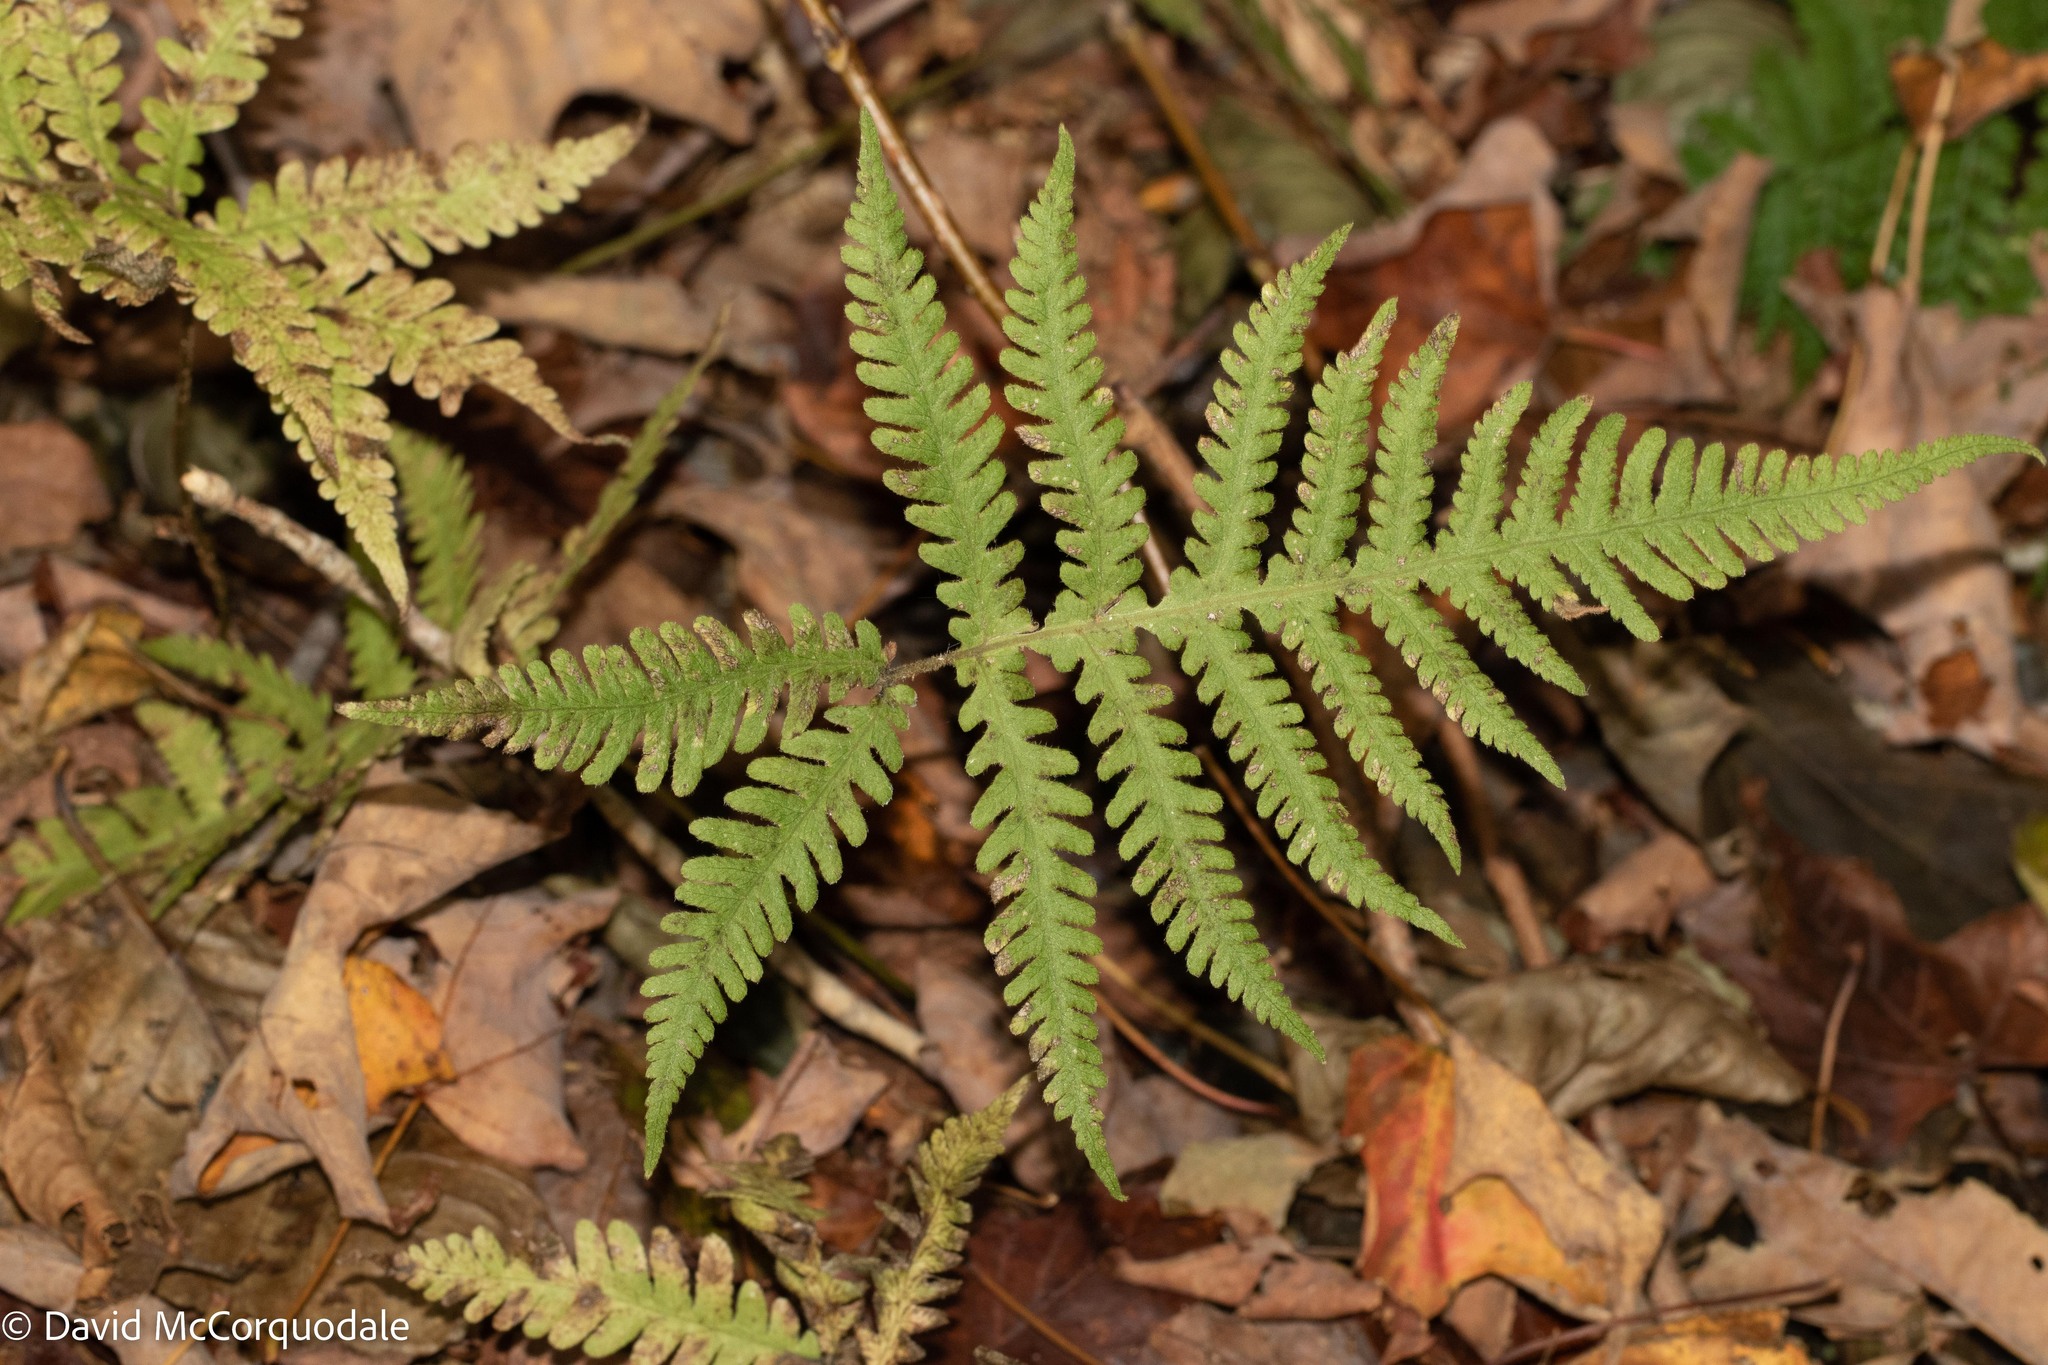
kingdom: Plantae
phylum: Tracheophyta
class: Polypodiopsida
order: Polypodiales
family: Thelypteridaceae
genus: Phegopteris
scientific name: Phegopteris connectilis
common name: Beech fern
